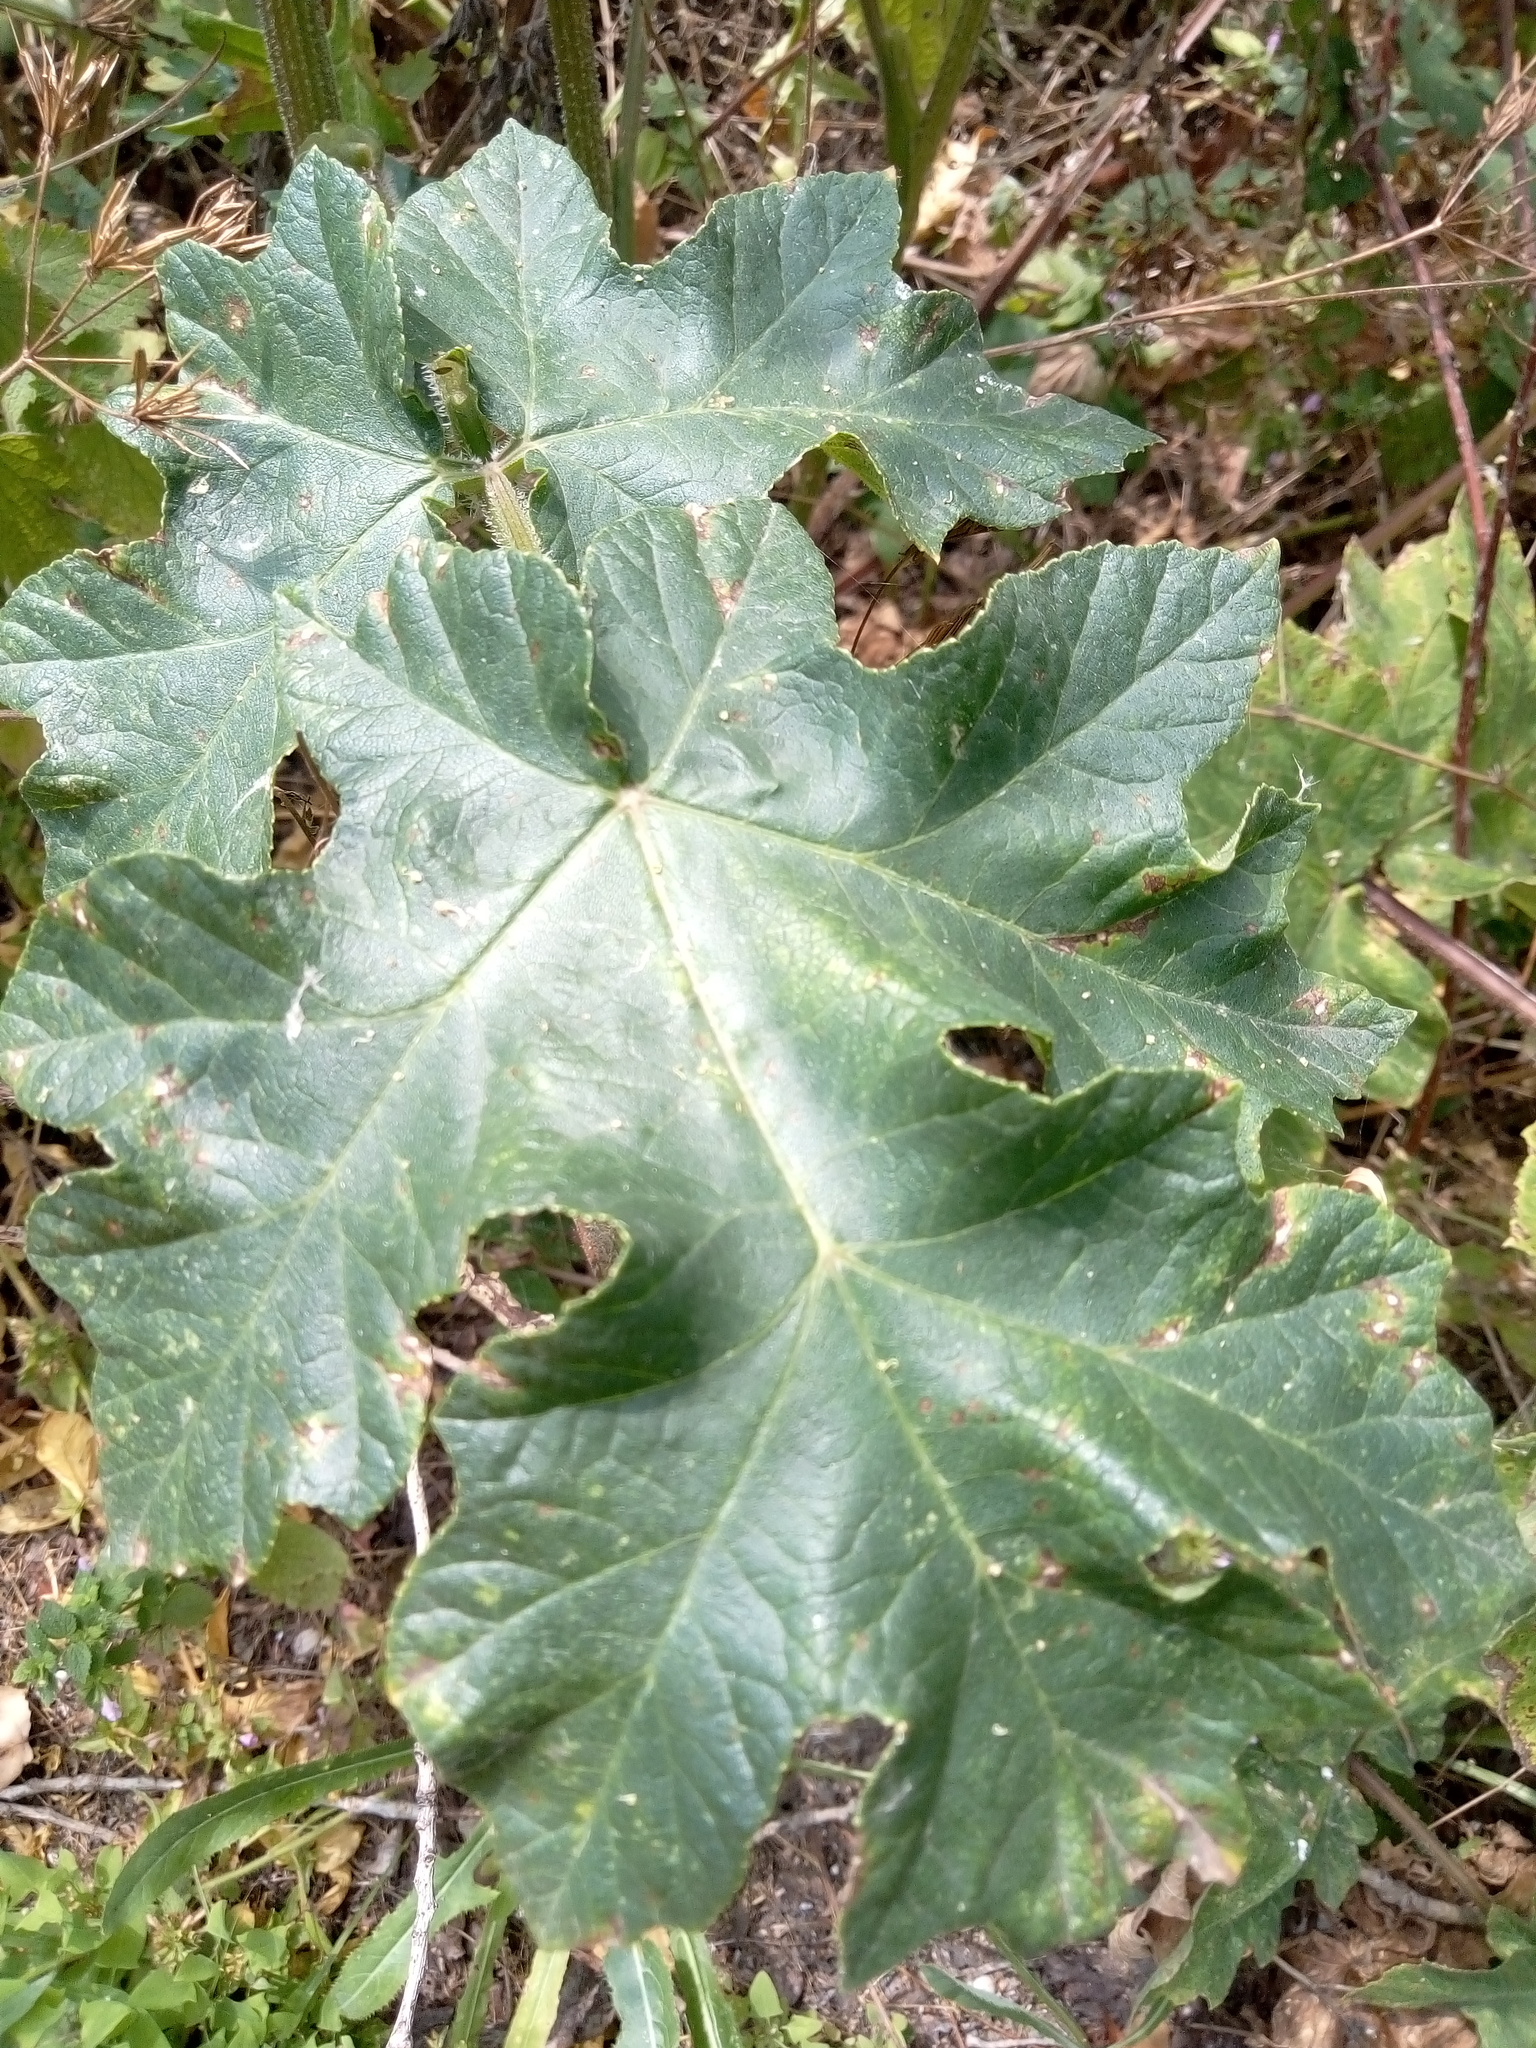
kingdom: Plantae
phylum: Tracheophyta
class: Magnoliopsida
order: Apiales
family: Apiaceae
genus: Heracleum
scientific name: Heracleum sphondylium
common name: Hogweed
